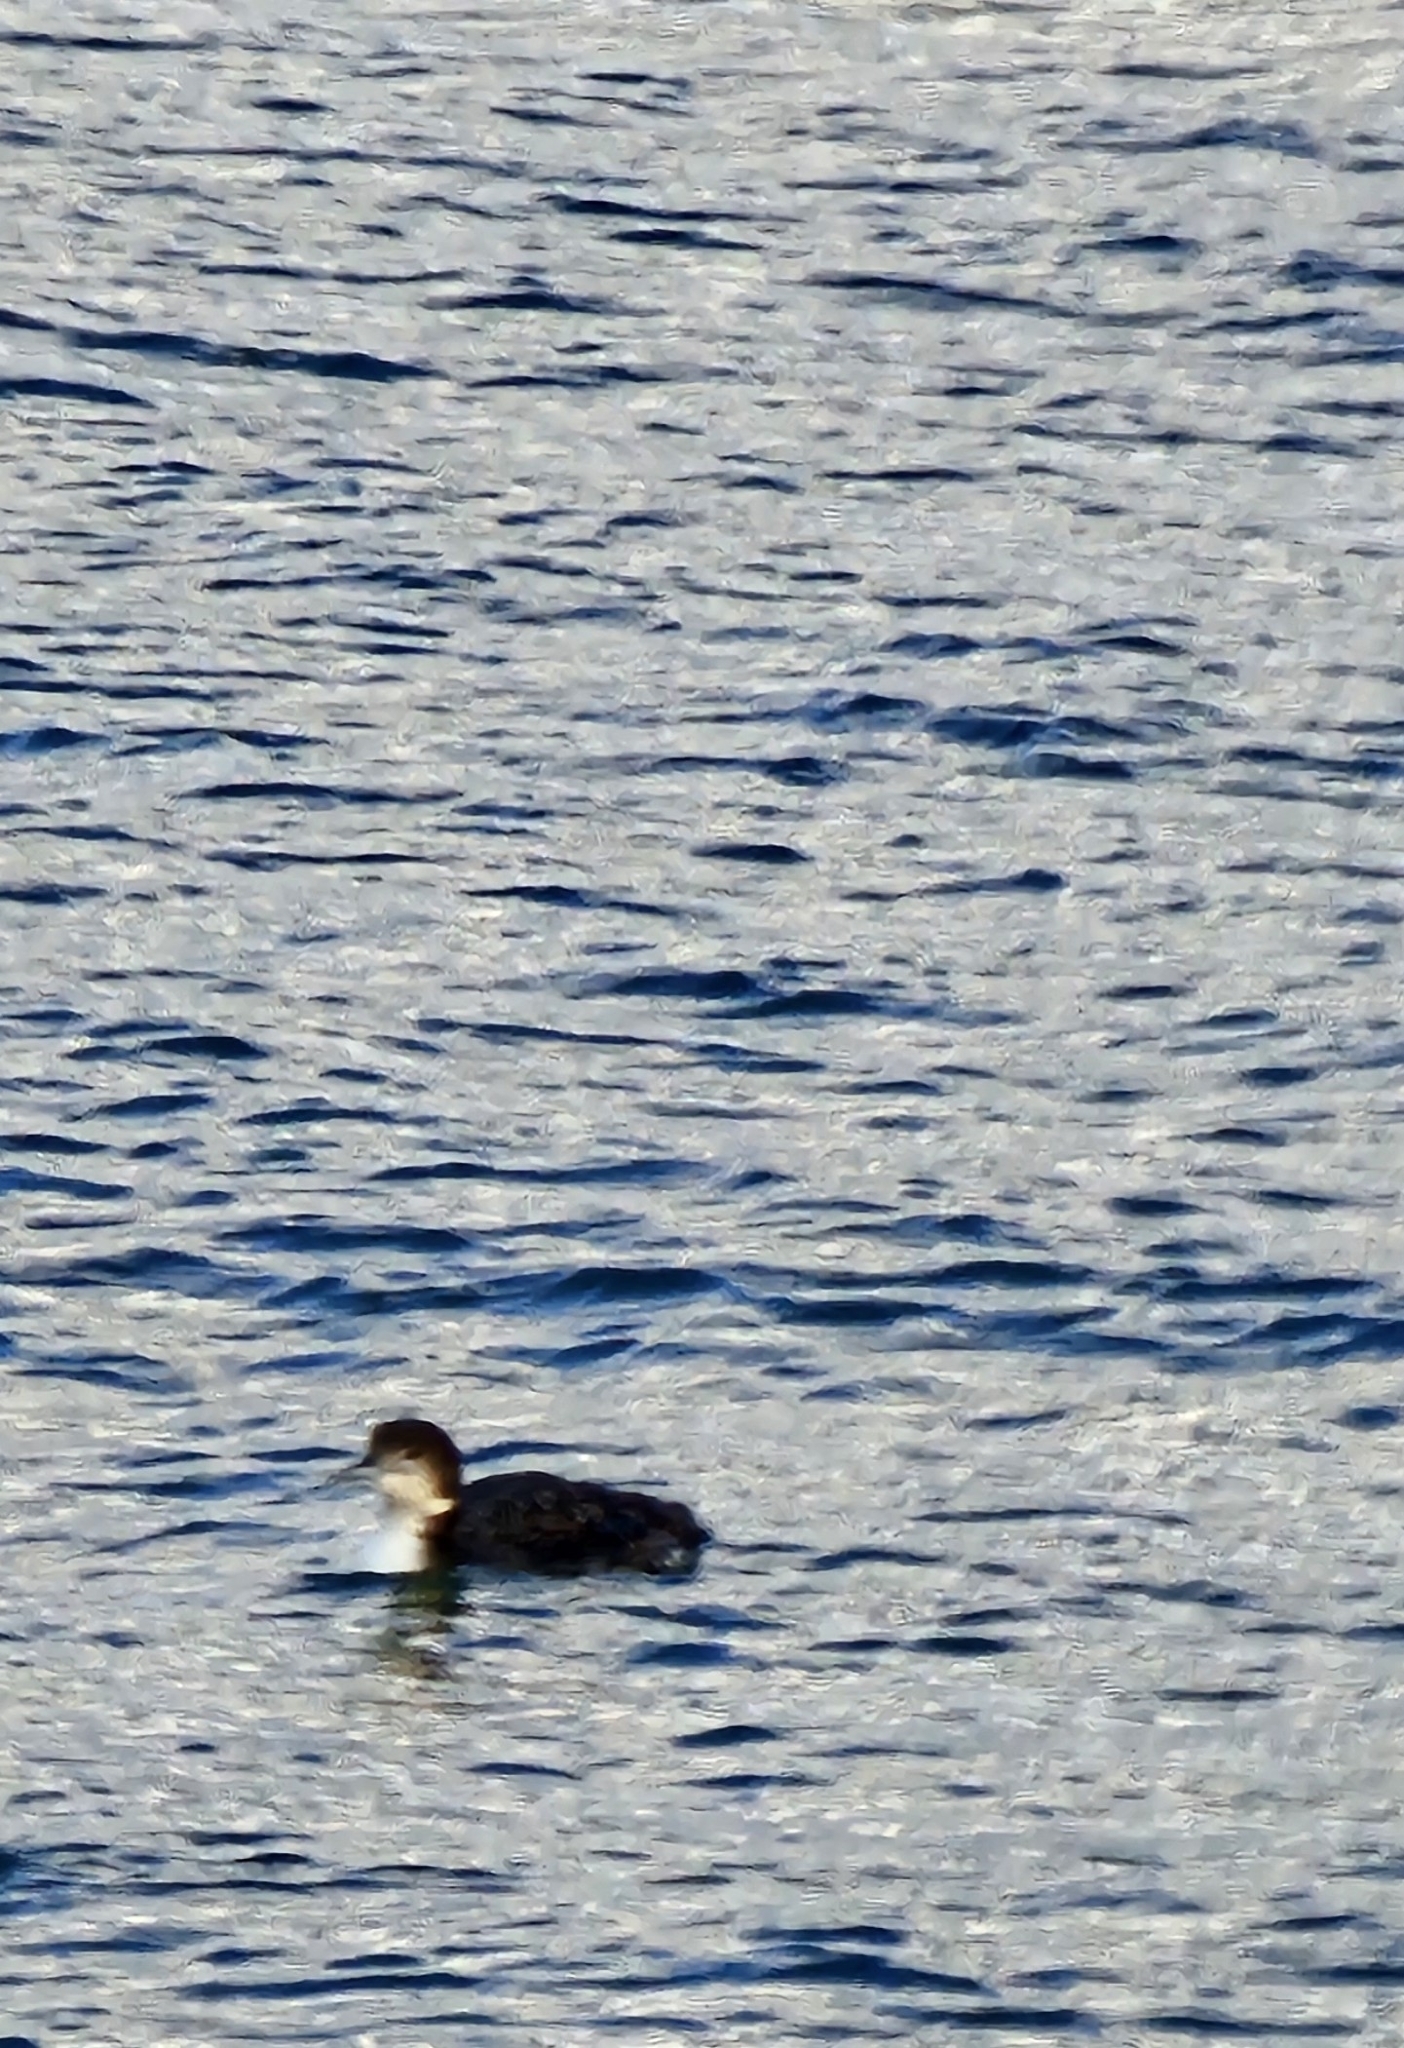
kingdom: Animalia
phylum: Chordata
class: Aves
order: Gaviiformes
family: Gaviidae
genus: Gavia
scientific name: Gavia immer
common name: Common loon
